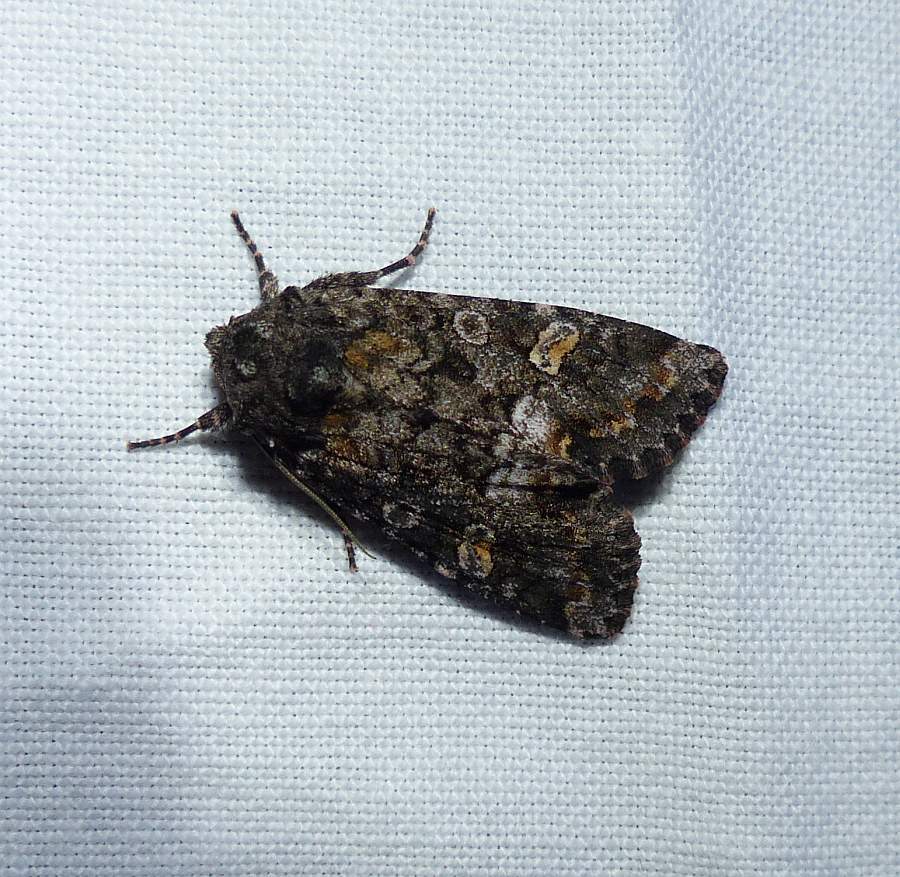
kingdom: Animalia
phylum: Arthropoda
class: Insecta
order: Lepidoptera
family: Noctuidae
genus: Spiramater
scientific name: Spiramater lutra
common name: Otter spiramater moth
